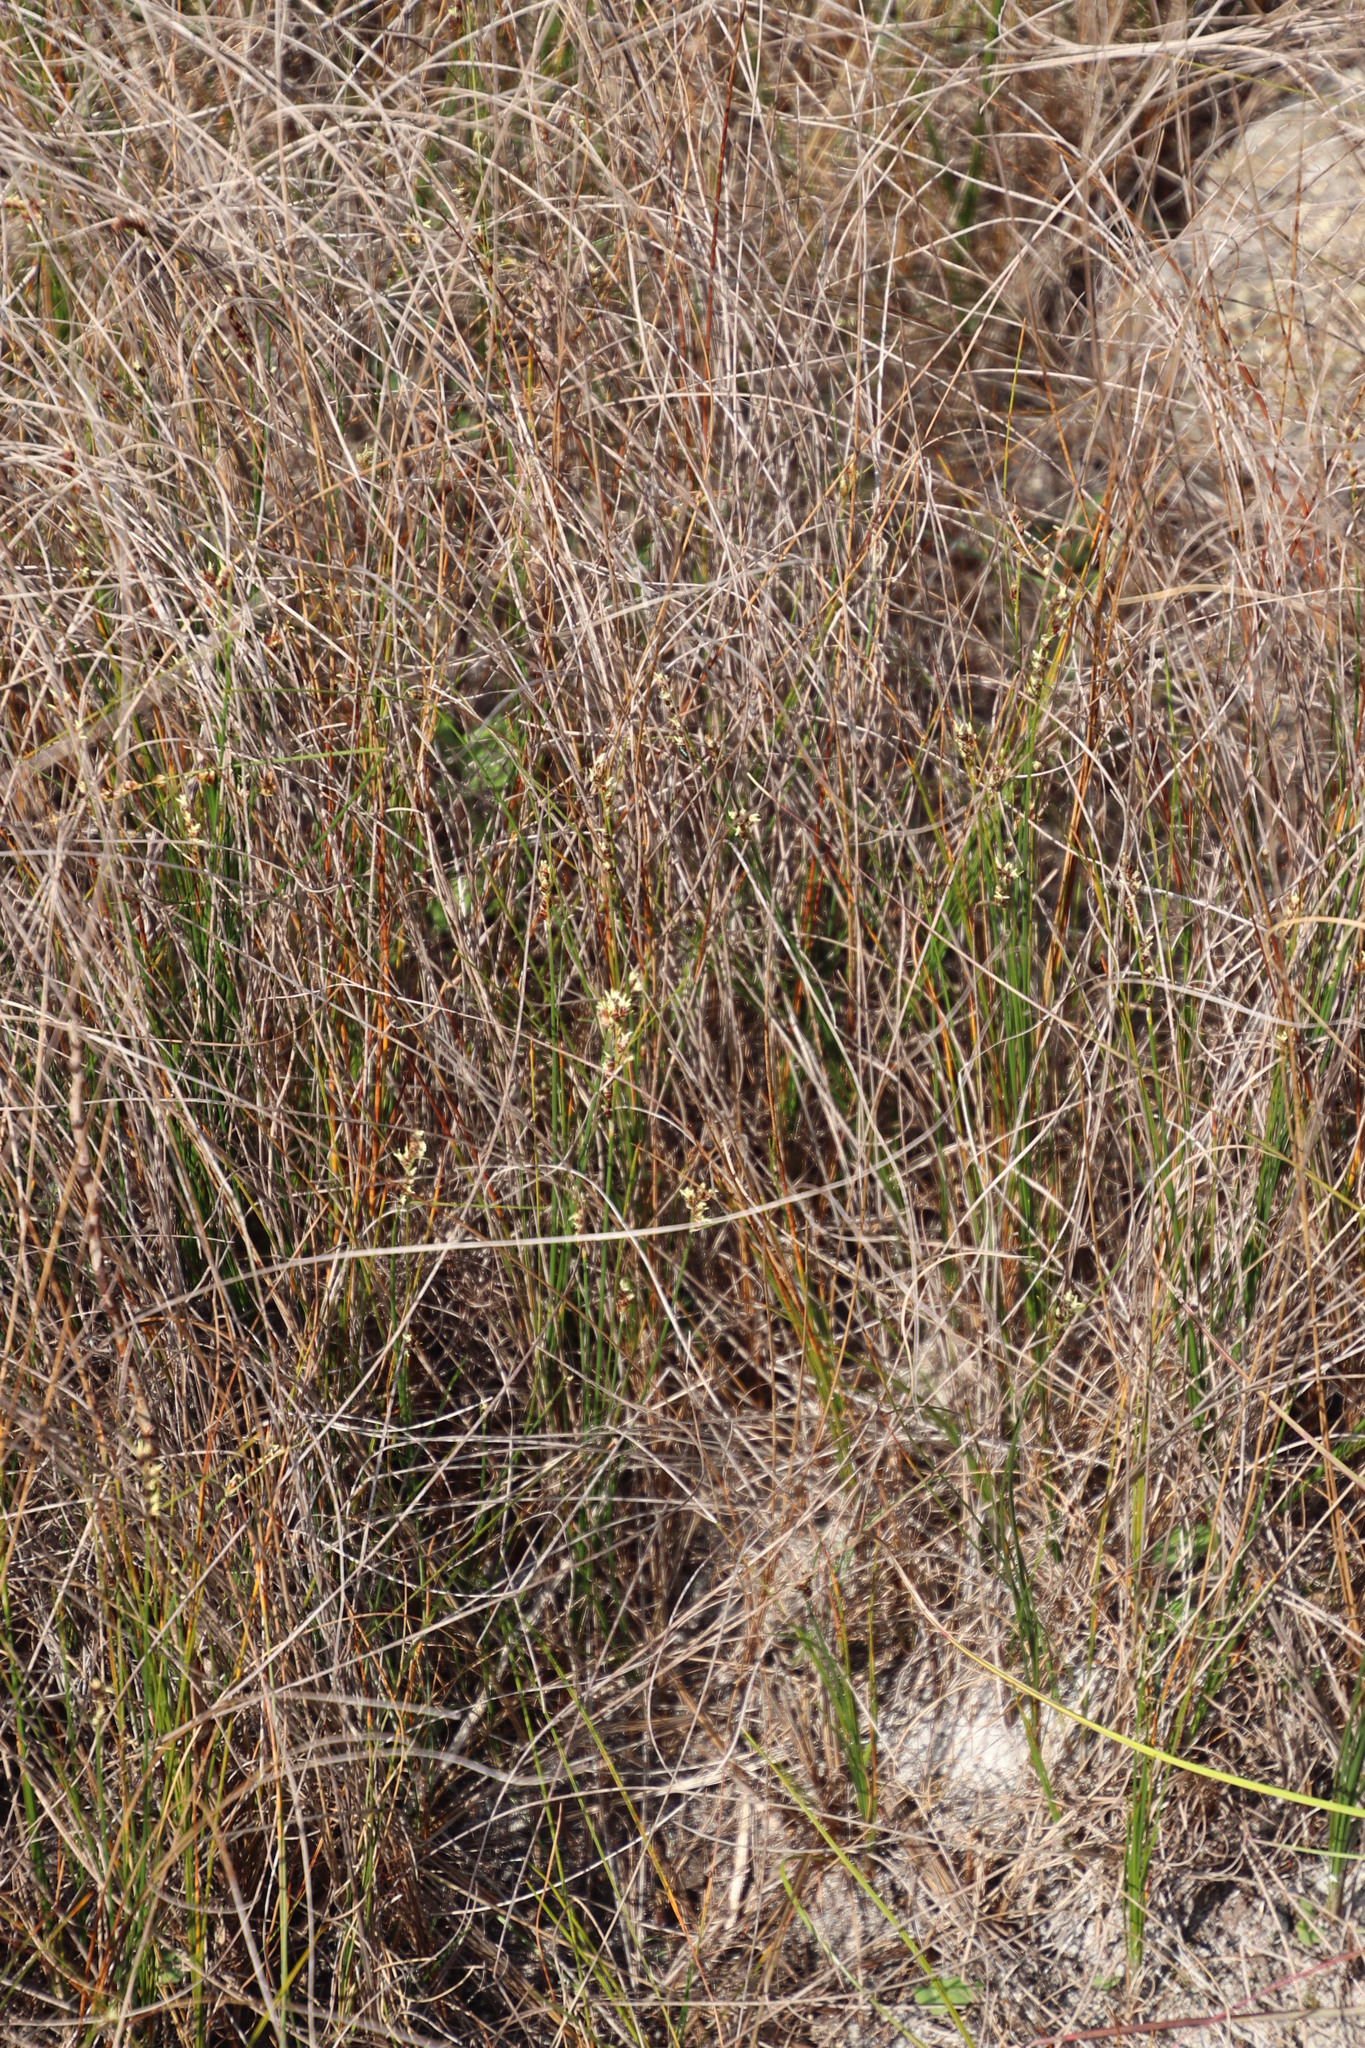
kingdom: Plantae
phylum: Tracheophyta
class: Liliopsida
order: Poales
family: Cyperaceae
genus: Ficinia
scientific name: Ficinia secunda
